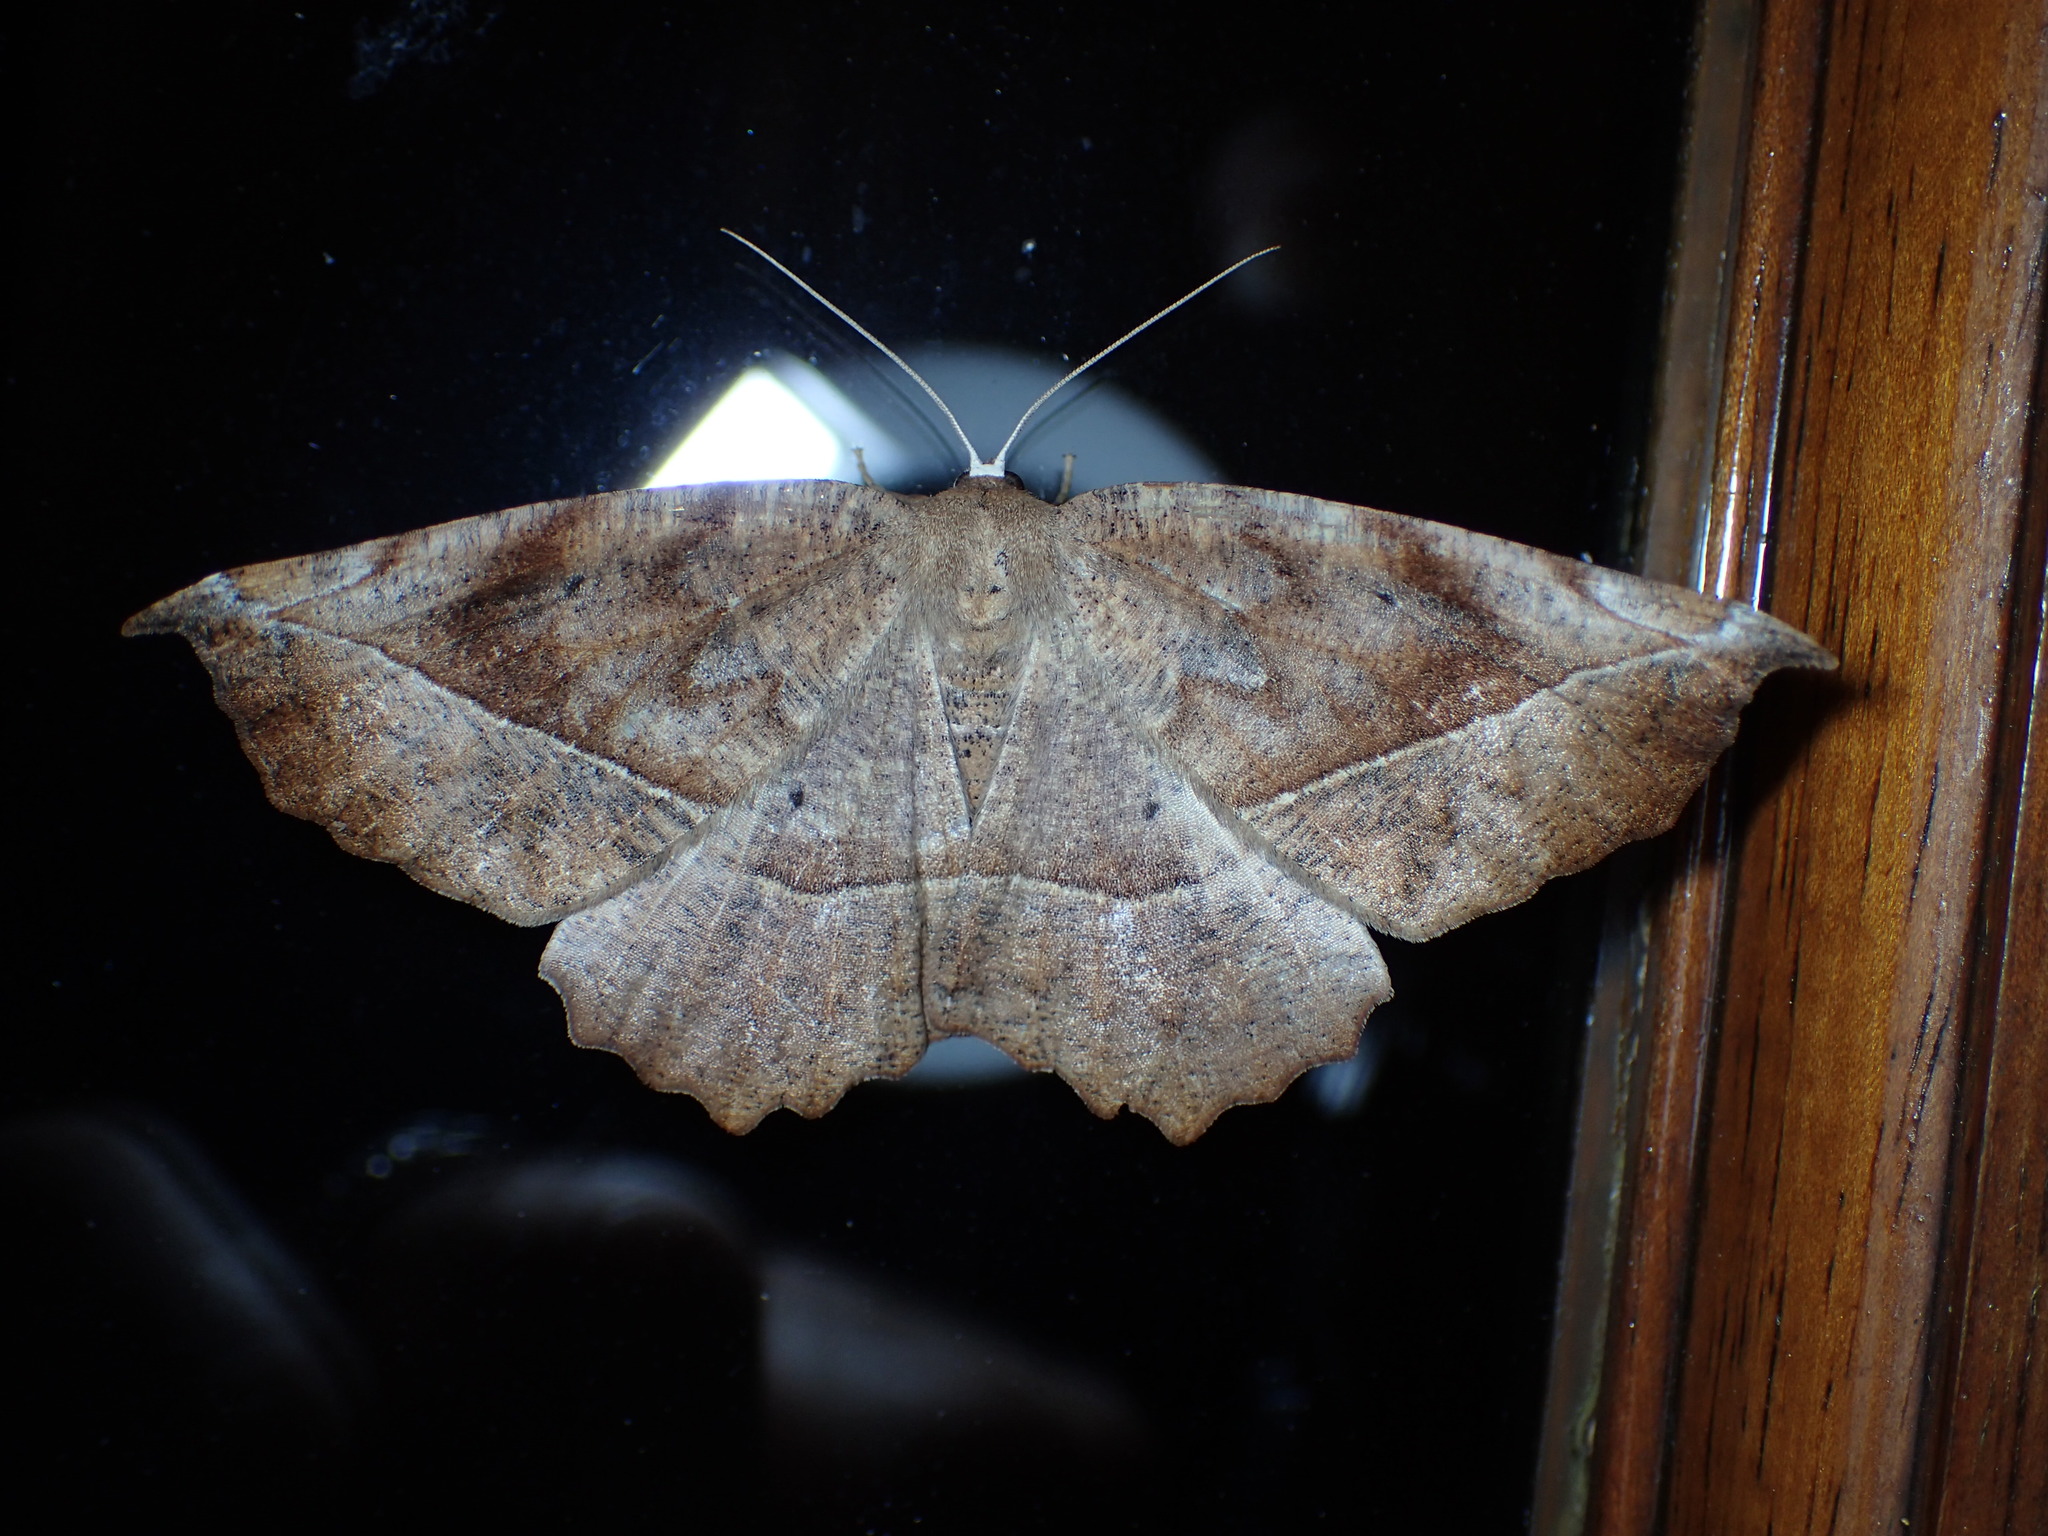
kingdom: Animalia
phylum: Arthropoda
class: Insecta
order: Lepidoptera
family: Geometridae
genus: Eutrapela
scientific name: Eutrapela clemataria
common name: Curved-toothed geometer
